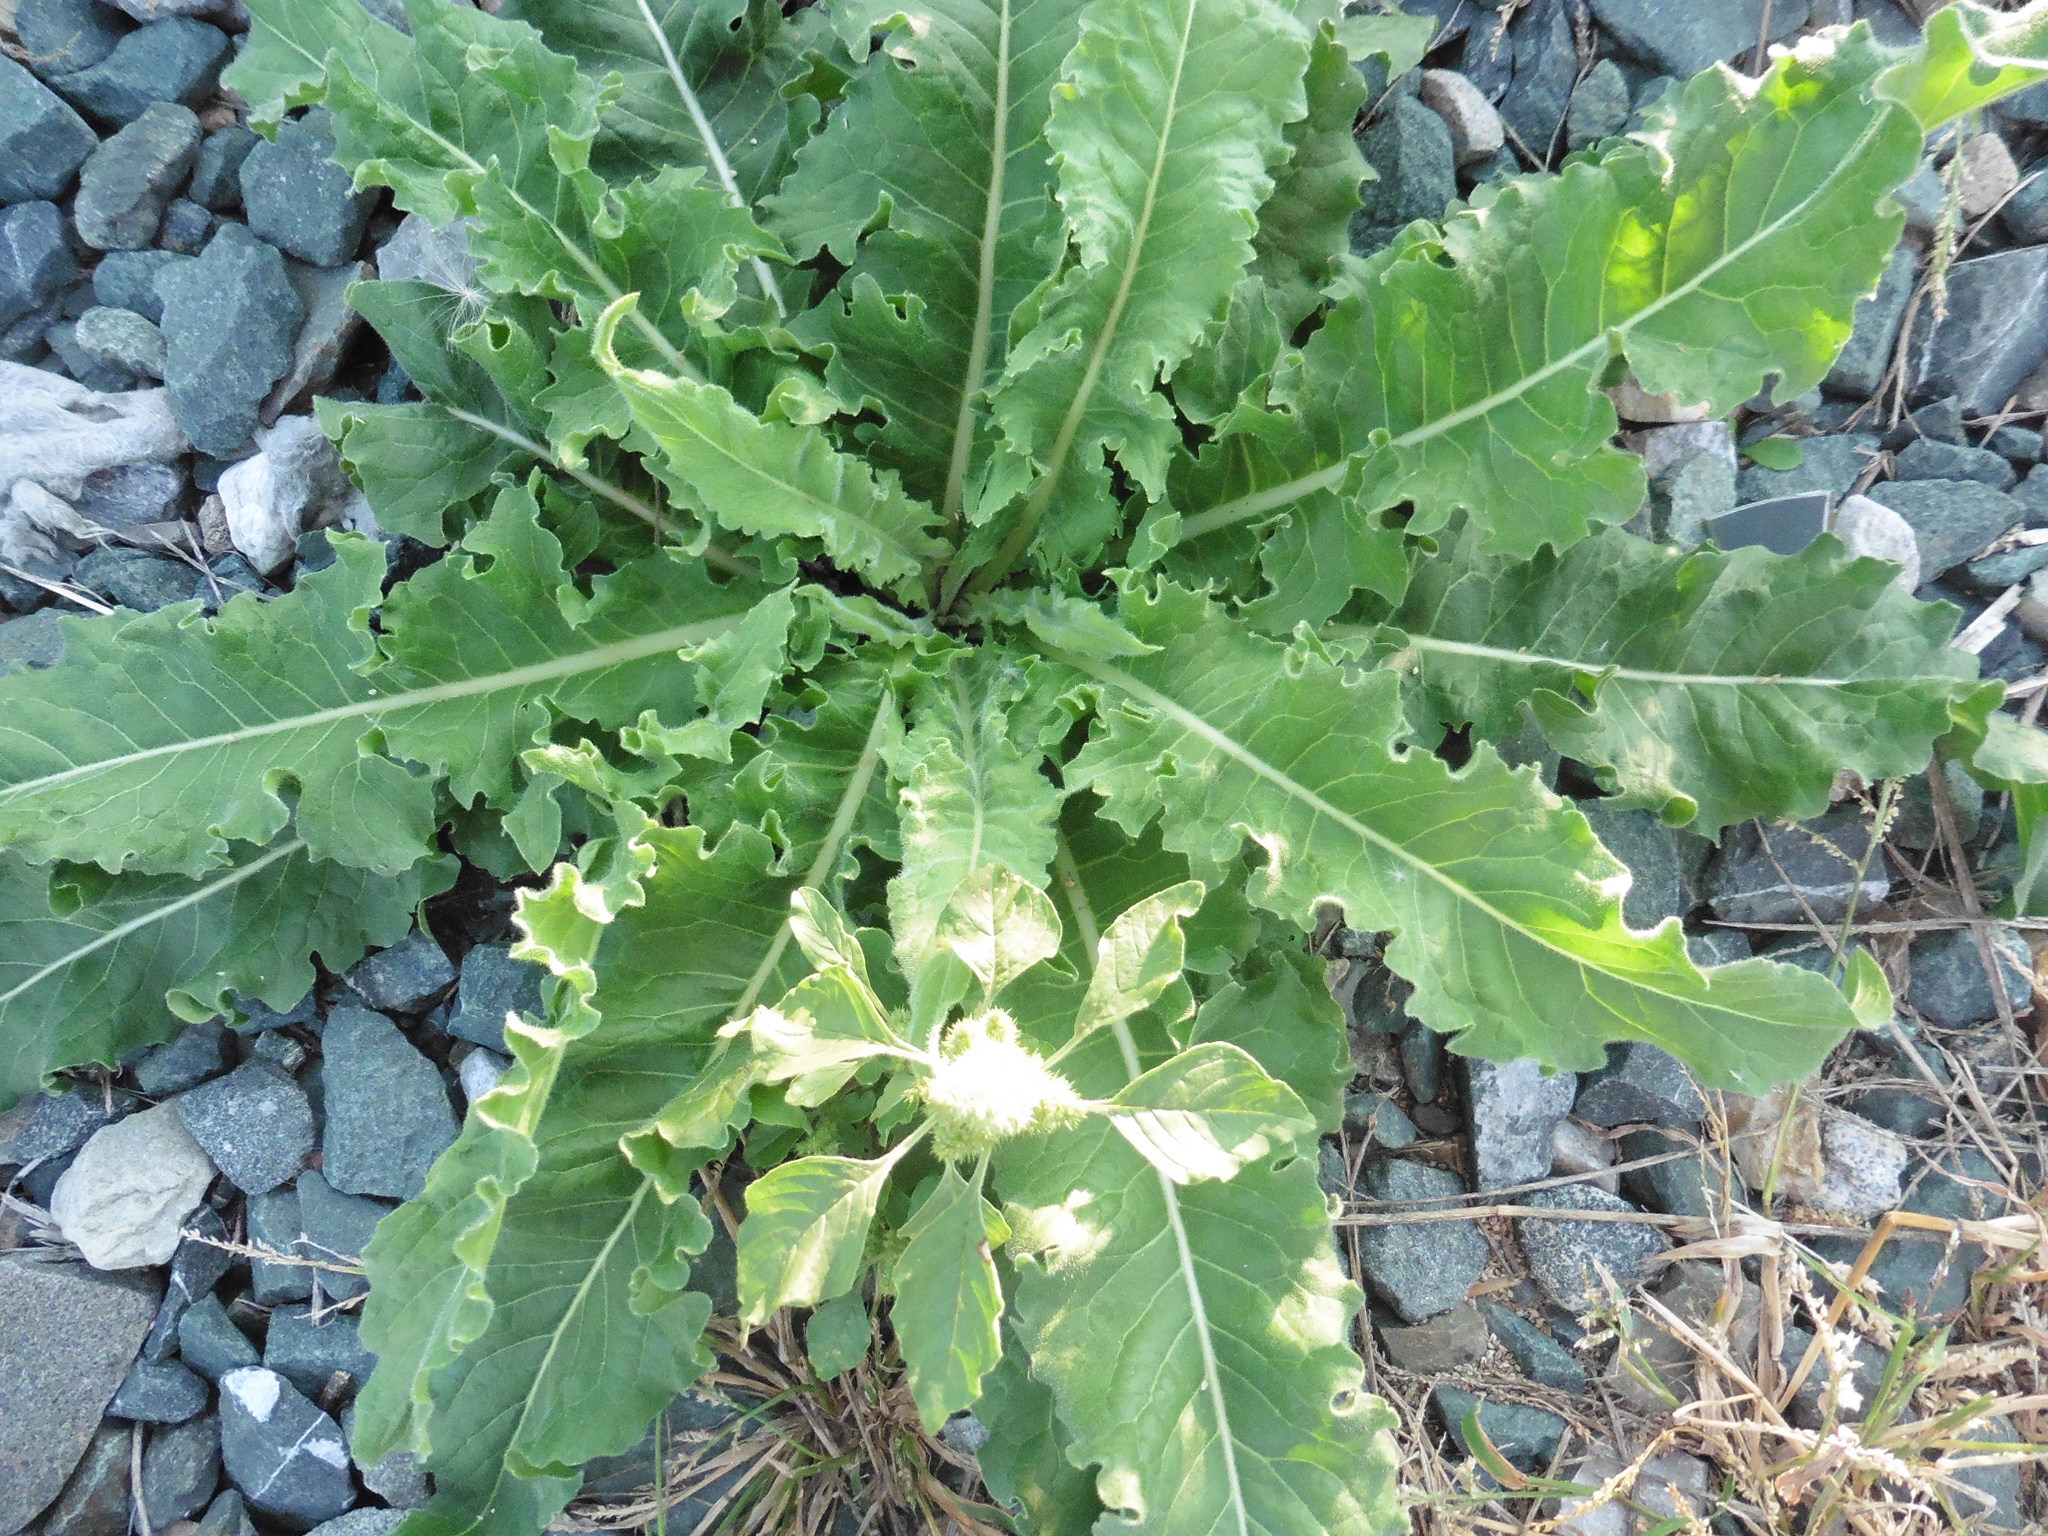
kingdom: Plantae
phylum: Tracheophyta
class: Magnoliopsida
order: Brassicales
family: Brassicaceae
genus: Bunias
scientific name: Bunias orientalis
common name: Warty-cabbage
